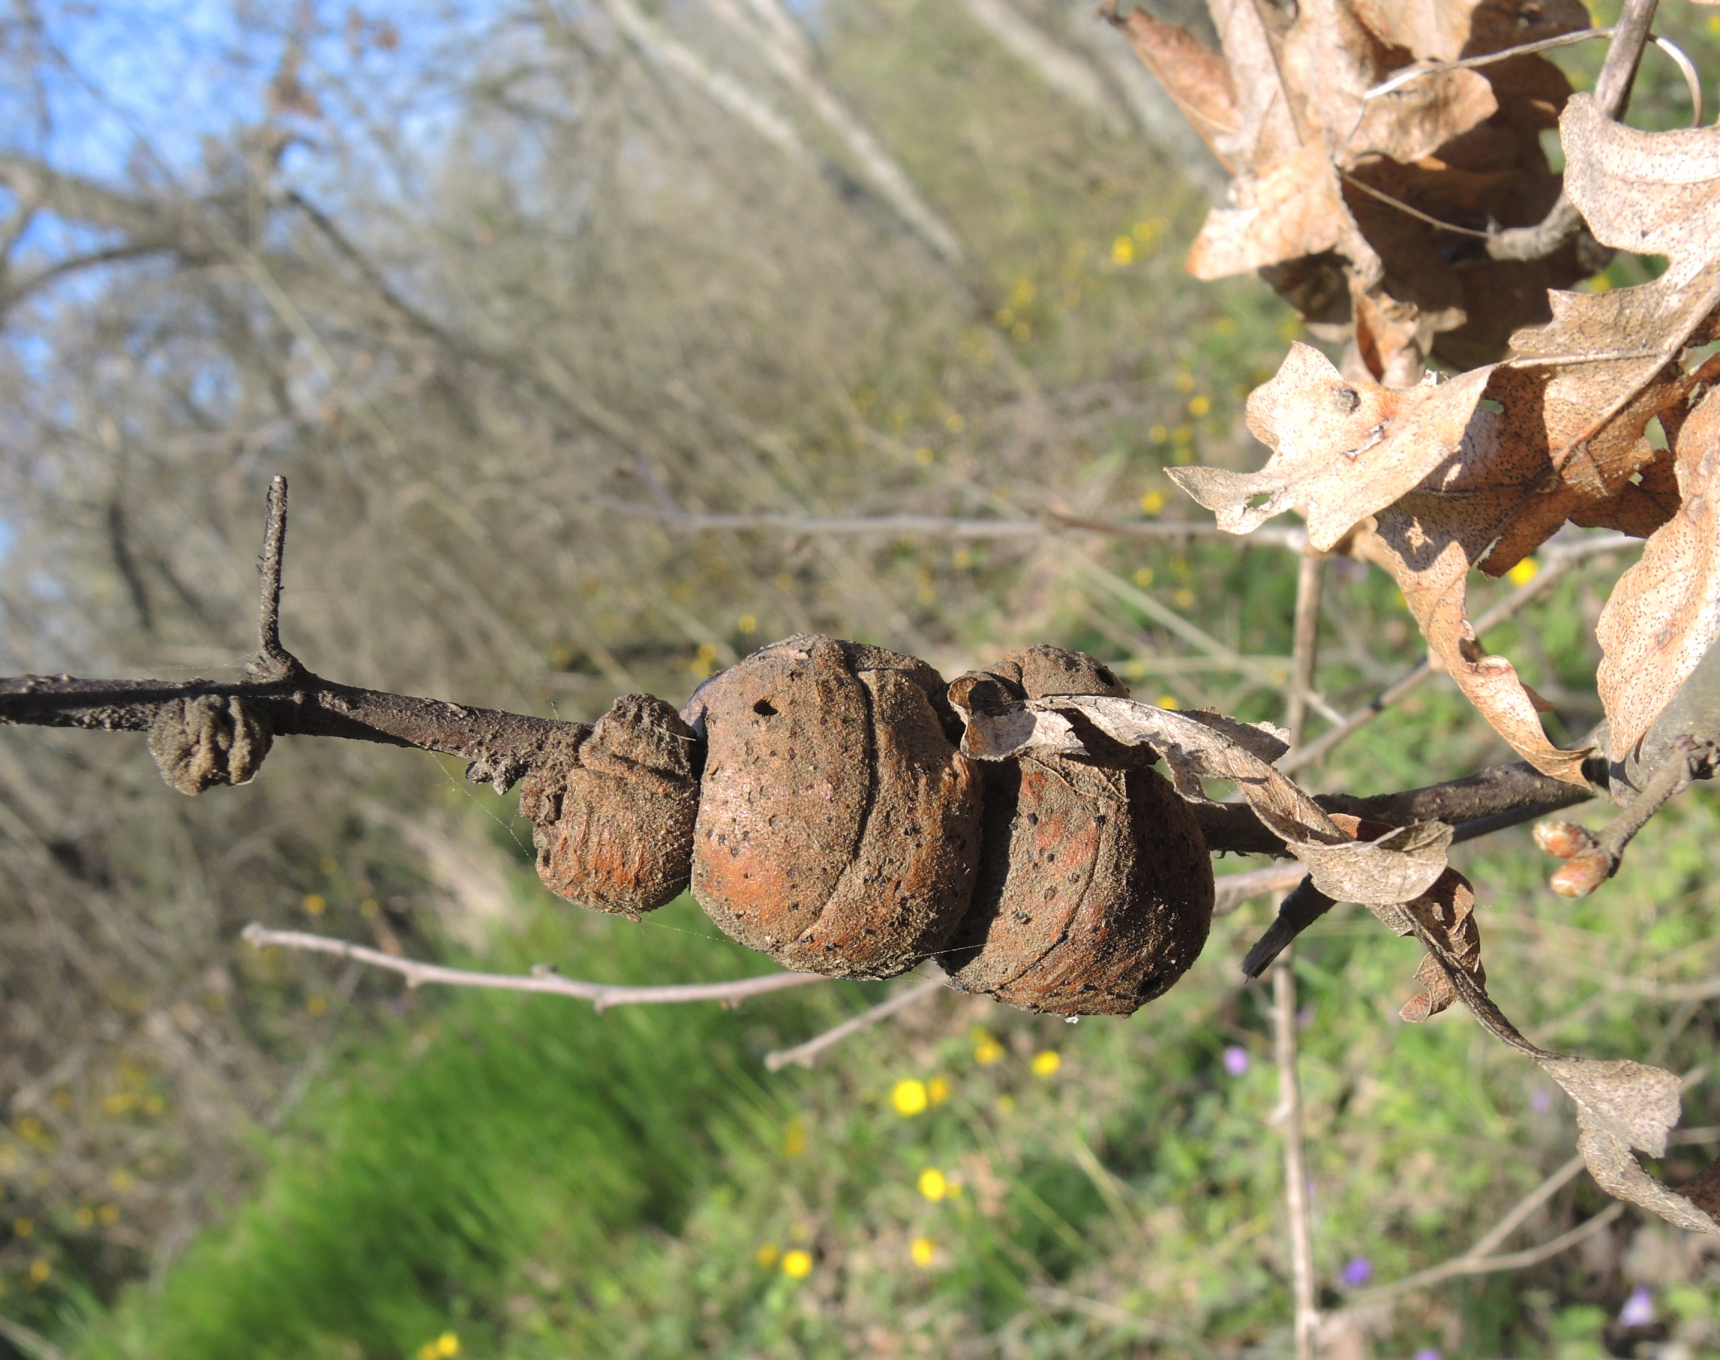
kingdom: Animalia
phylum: Arthropoda
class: Insecta
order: Hymenoptera
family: Cynipidae
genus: Aphelonyx
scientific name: Aphelonyx cerricola
